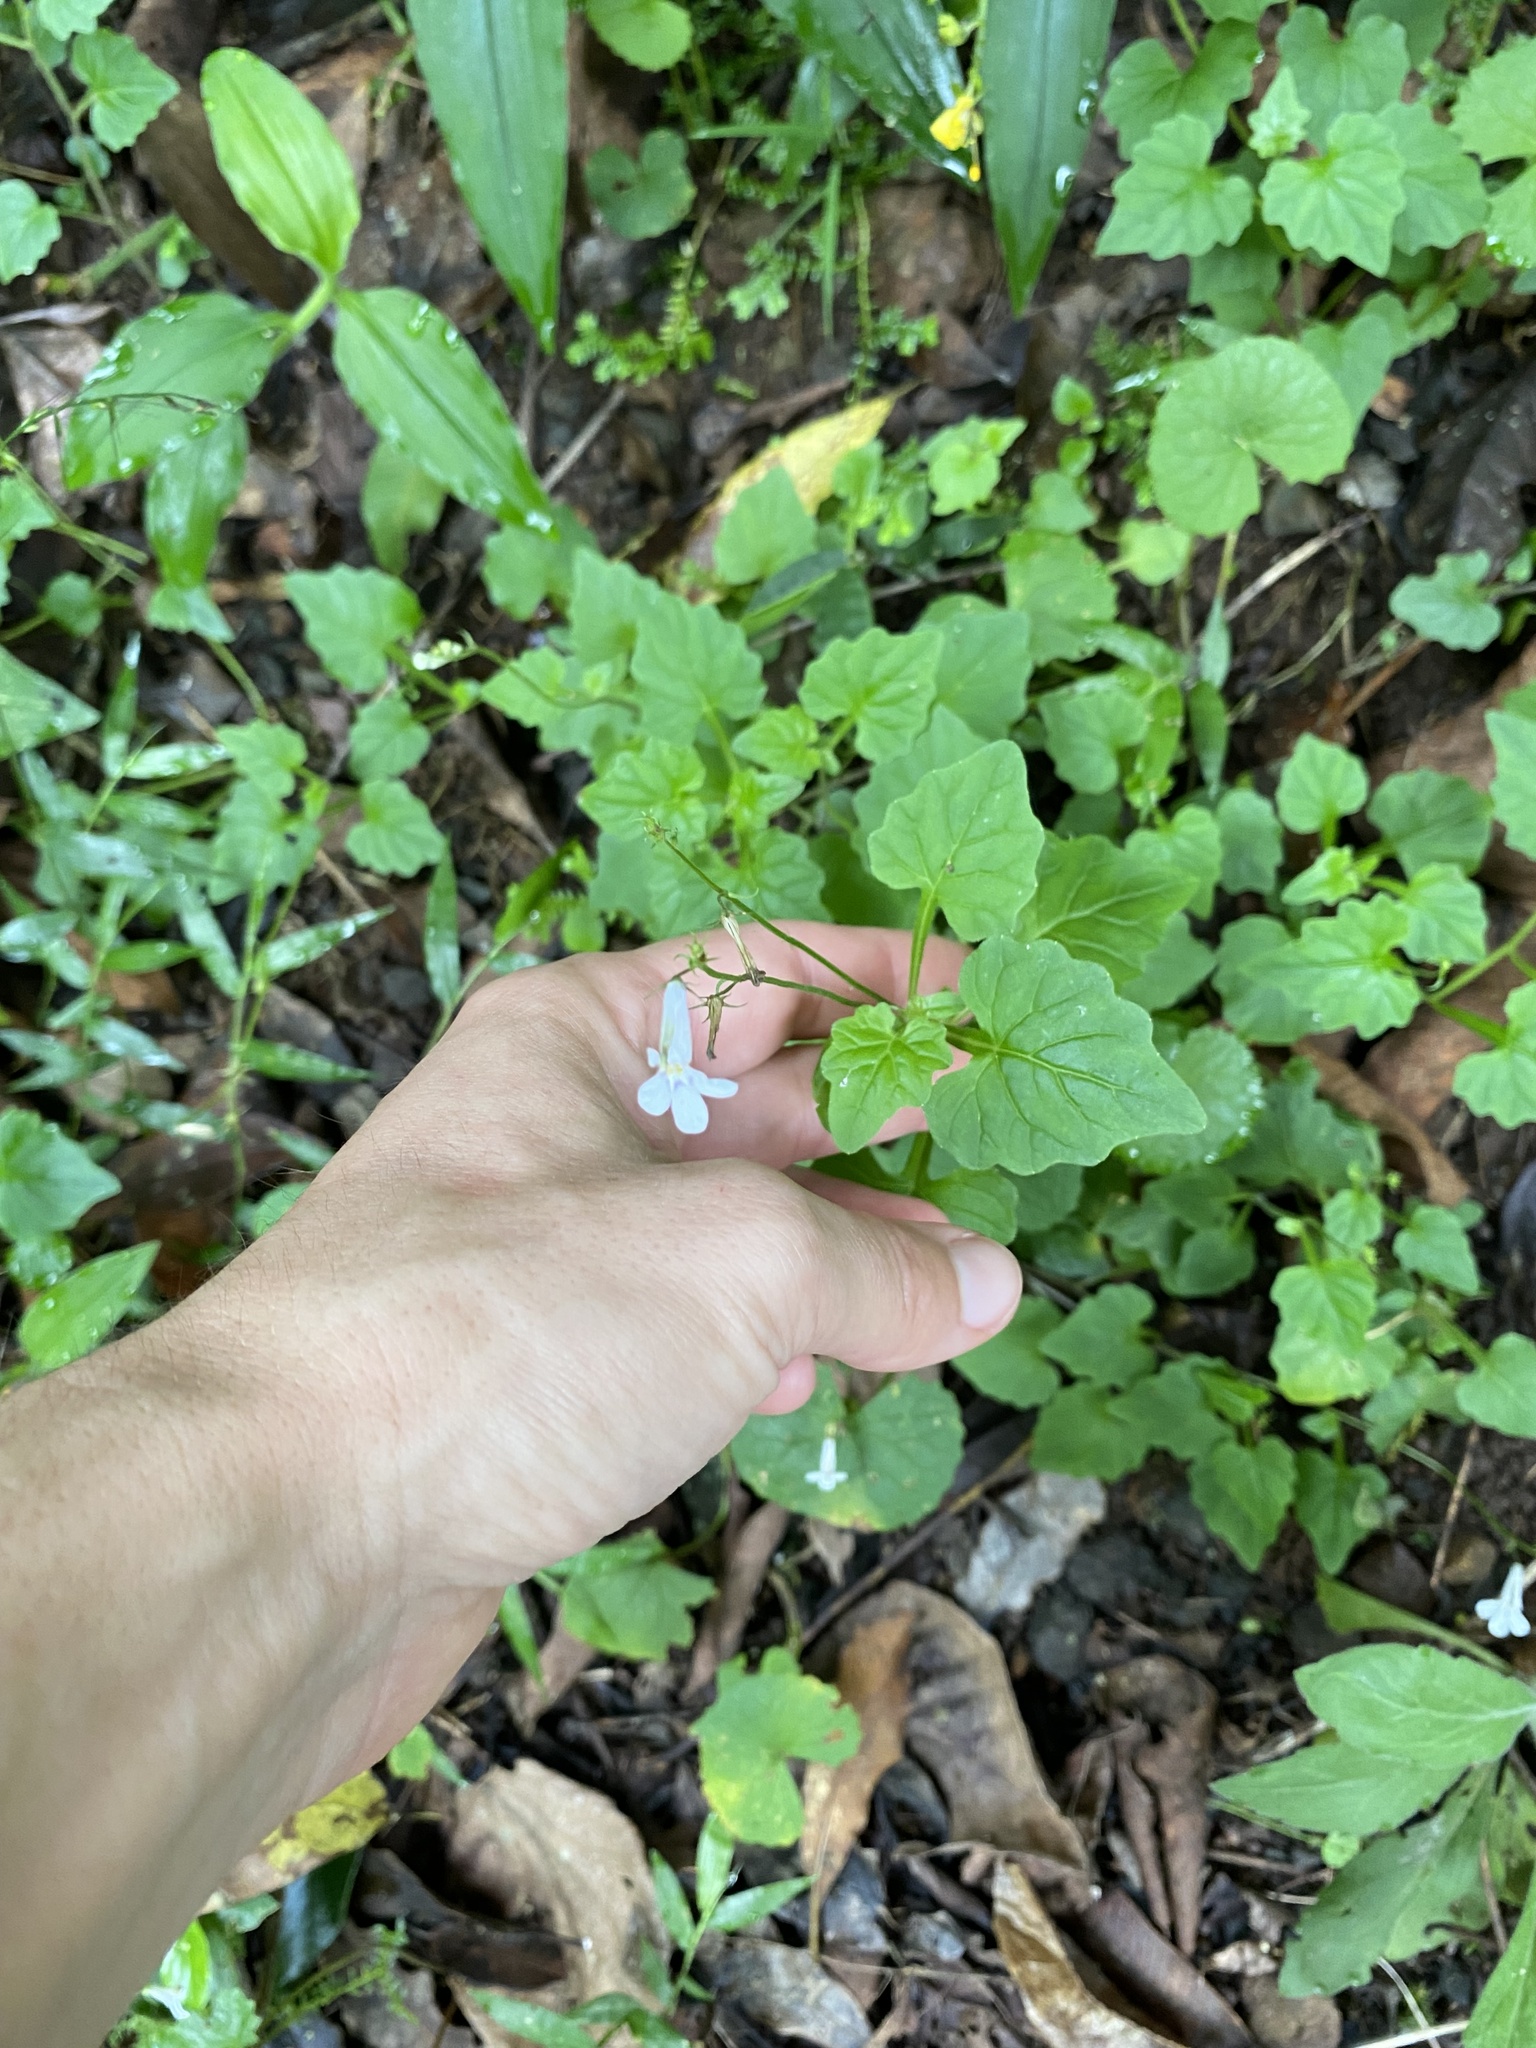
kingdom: Plantae
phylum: Tracheophyta
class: Magnoliopsida
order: Asterales
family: Campanulaceae
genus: Lobelia
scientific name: Lobelia pteropoda
